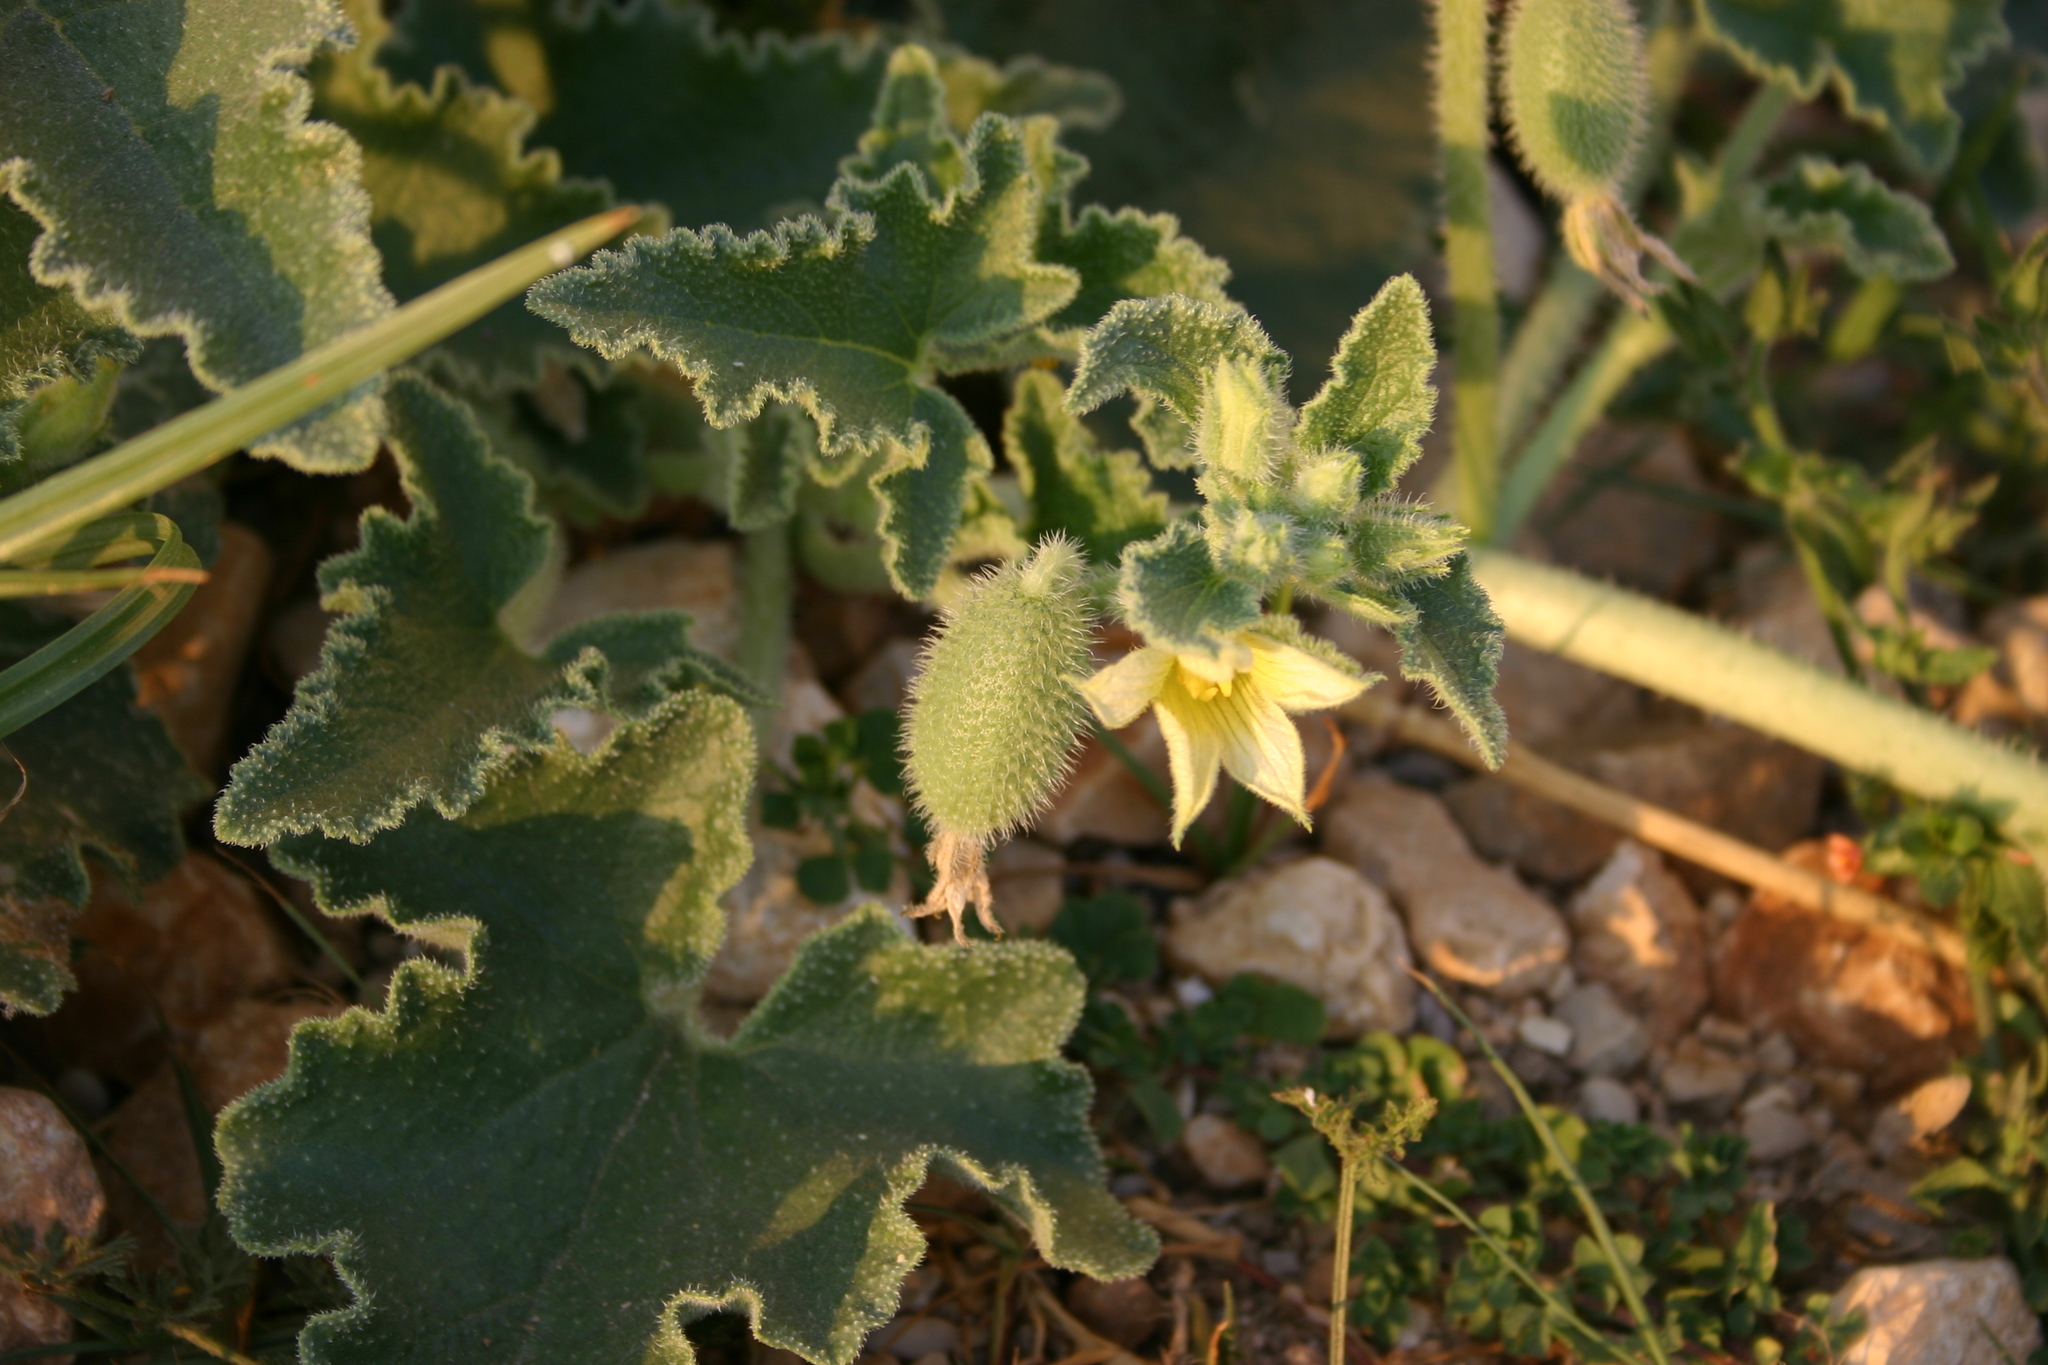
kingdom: Plantae
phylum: Tracheophyta
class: Magnoliopsida
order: Cucurbitales
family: Cucurbitaceae
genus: Ecballium
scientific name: Ecballium elaterium
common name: Squirting cucumber
